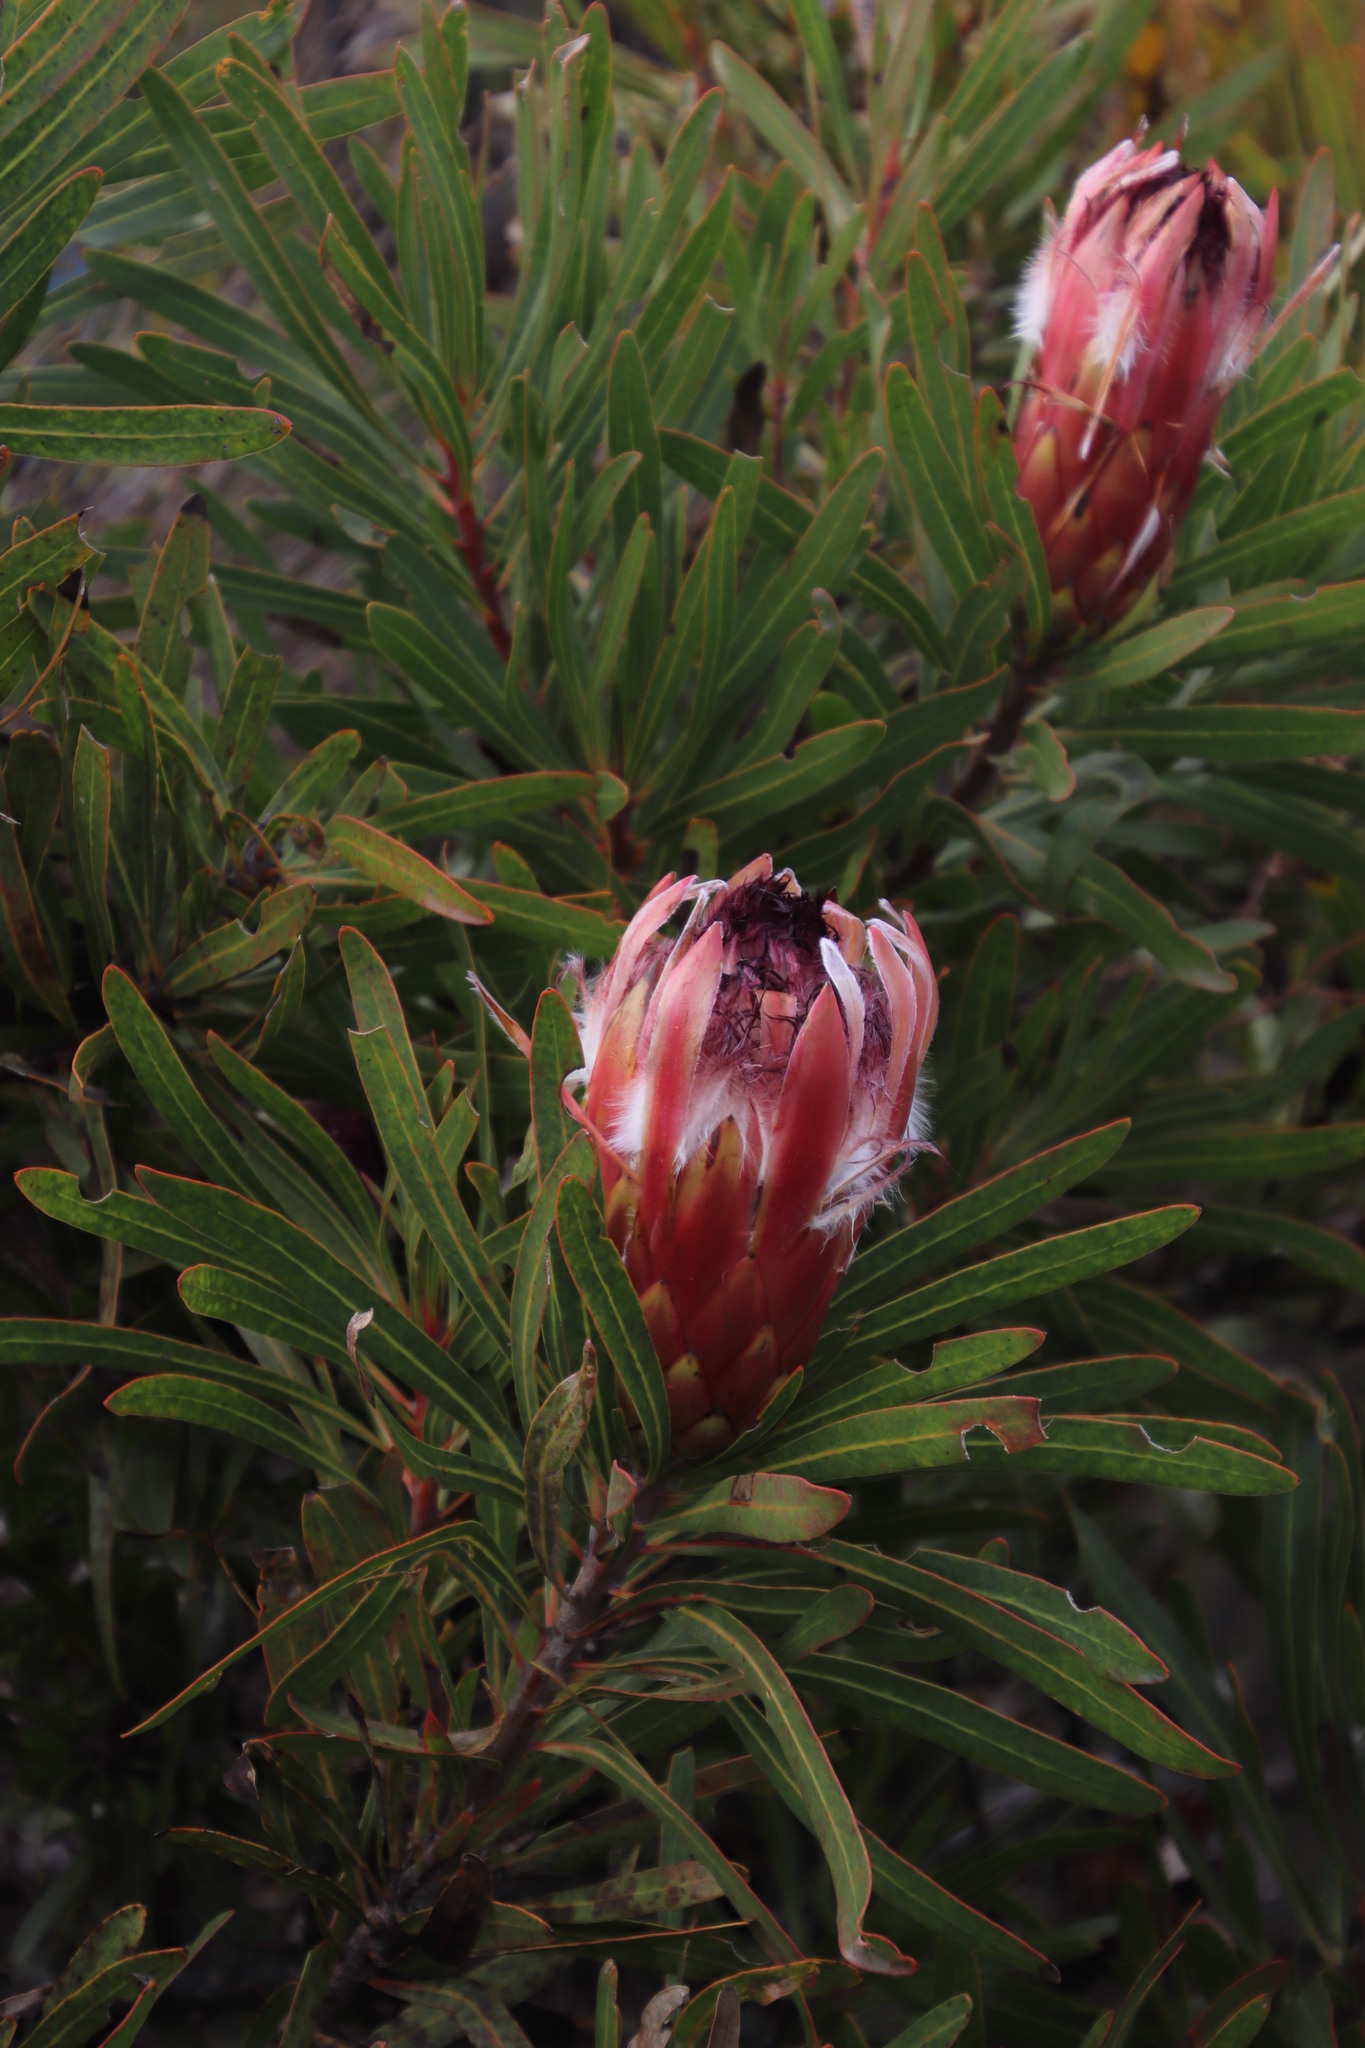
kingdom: Plantae
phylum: Tracheophyta
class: Magnoliopsida
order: Proteales
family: Proteaceae
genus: Protea
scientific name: Protea
